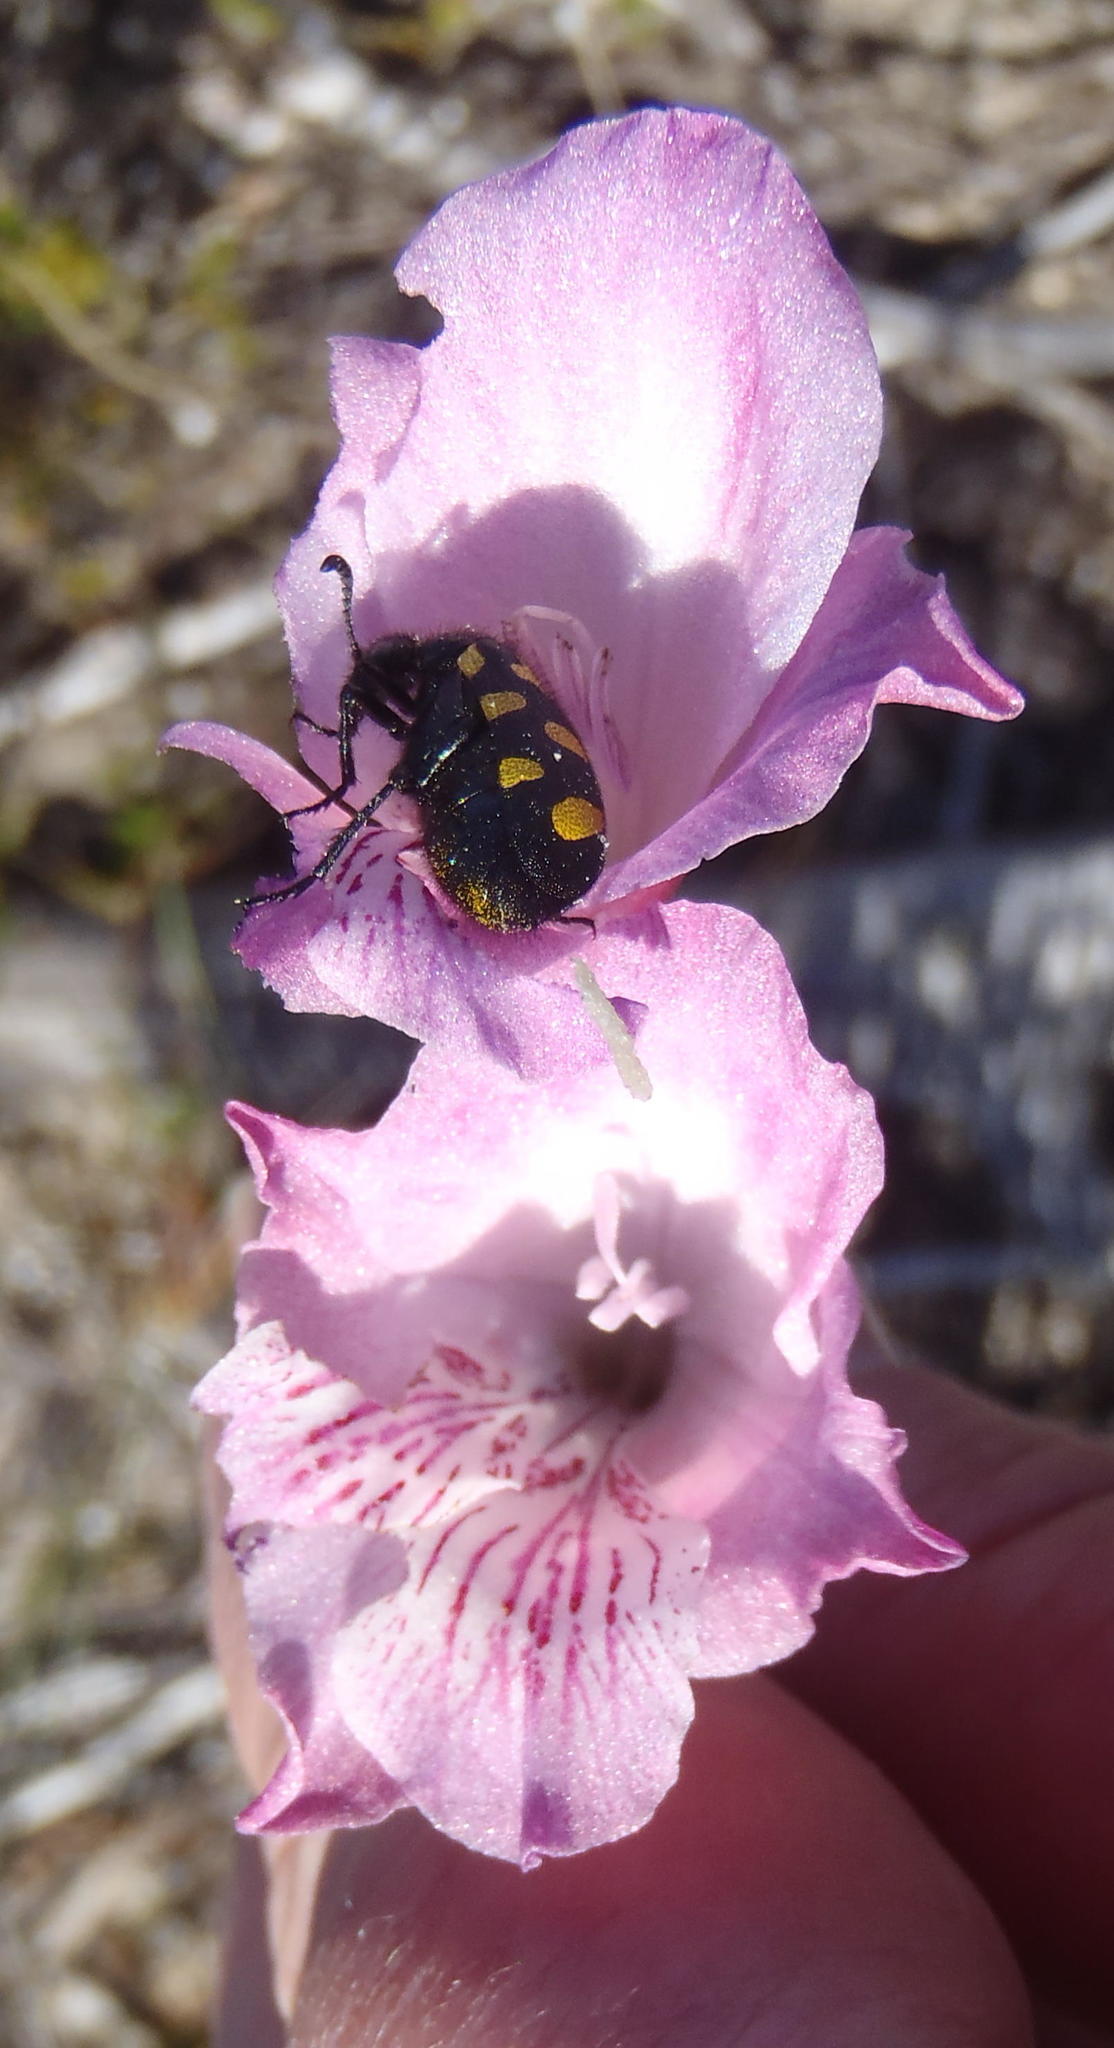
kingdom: Plantae
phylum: Tracheophyta
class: Liliopsida
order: Asparagales
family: Iridaceae
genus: Gladiolus
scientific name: Gladiolus hirsutus
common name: Small pink afrikaner
